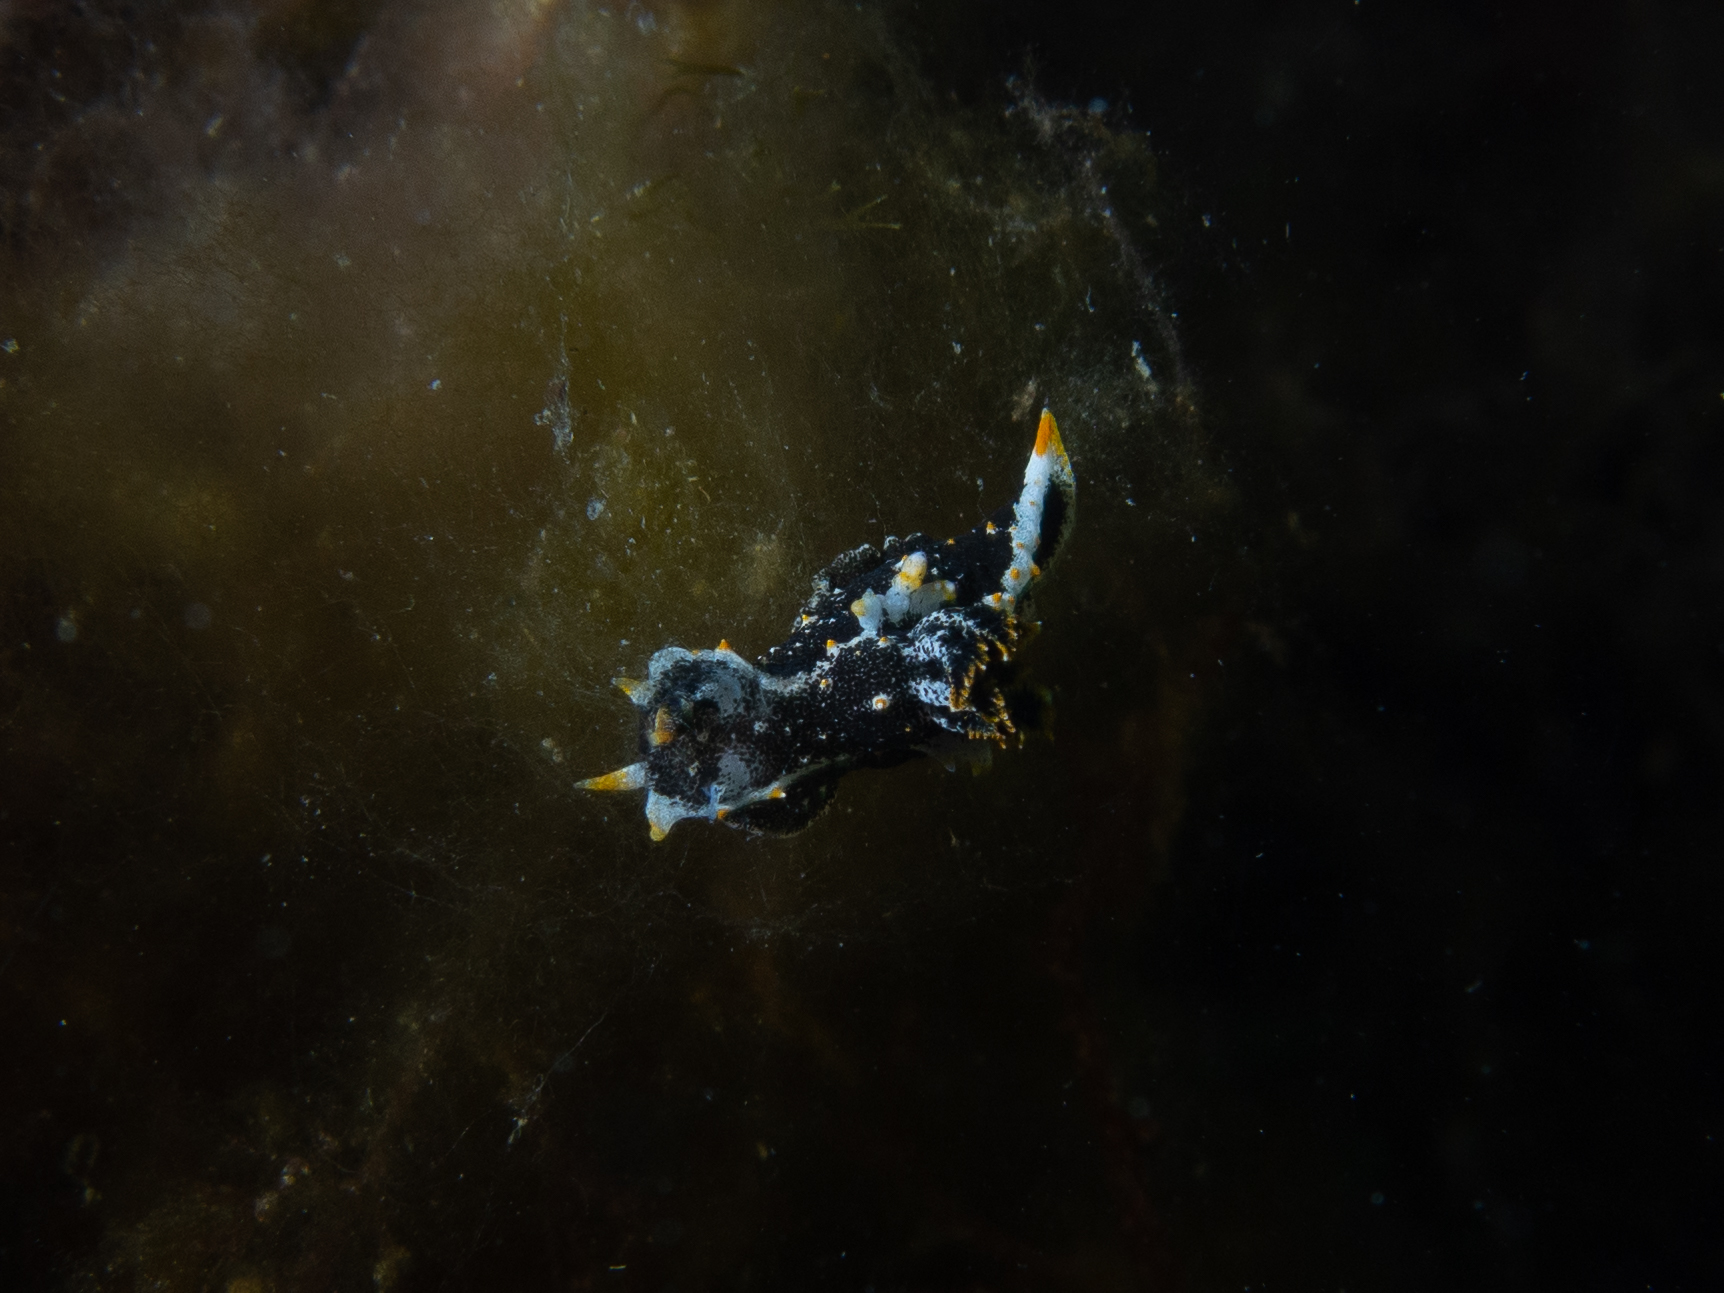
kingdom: Animalia
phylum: Mollusca
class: Gastropoda
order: Nudibranchia
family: Polyceridae
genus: Polycera
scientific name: Polycera hedgpethi
